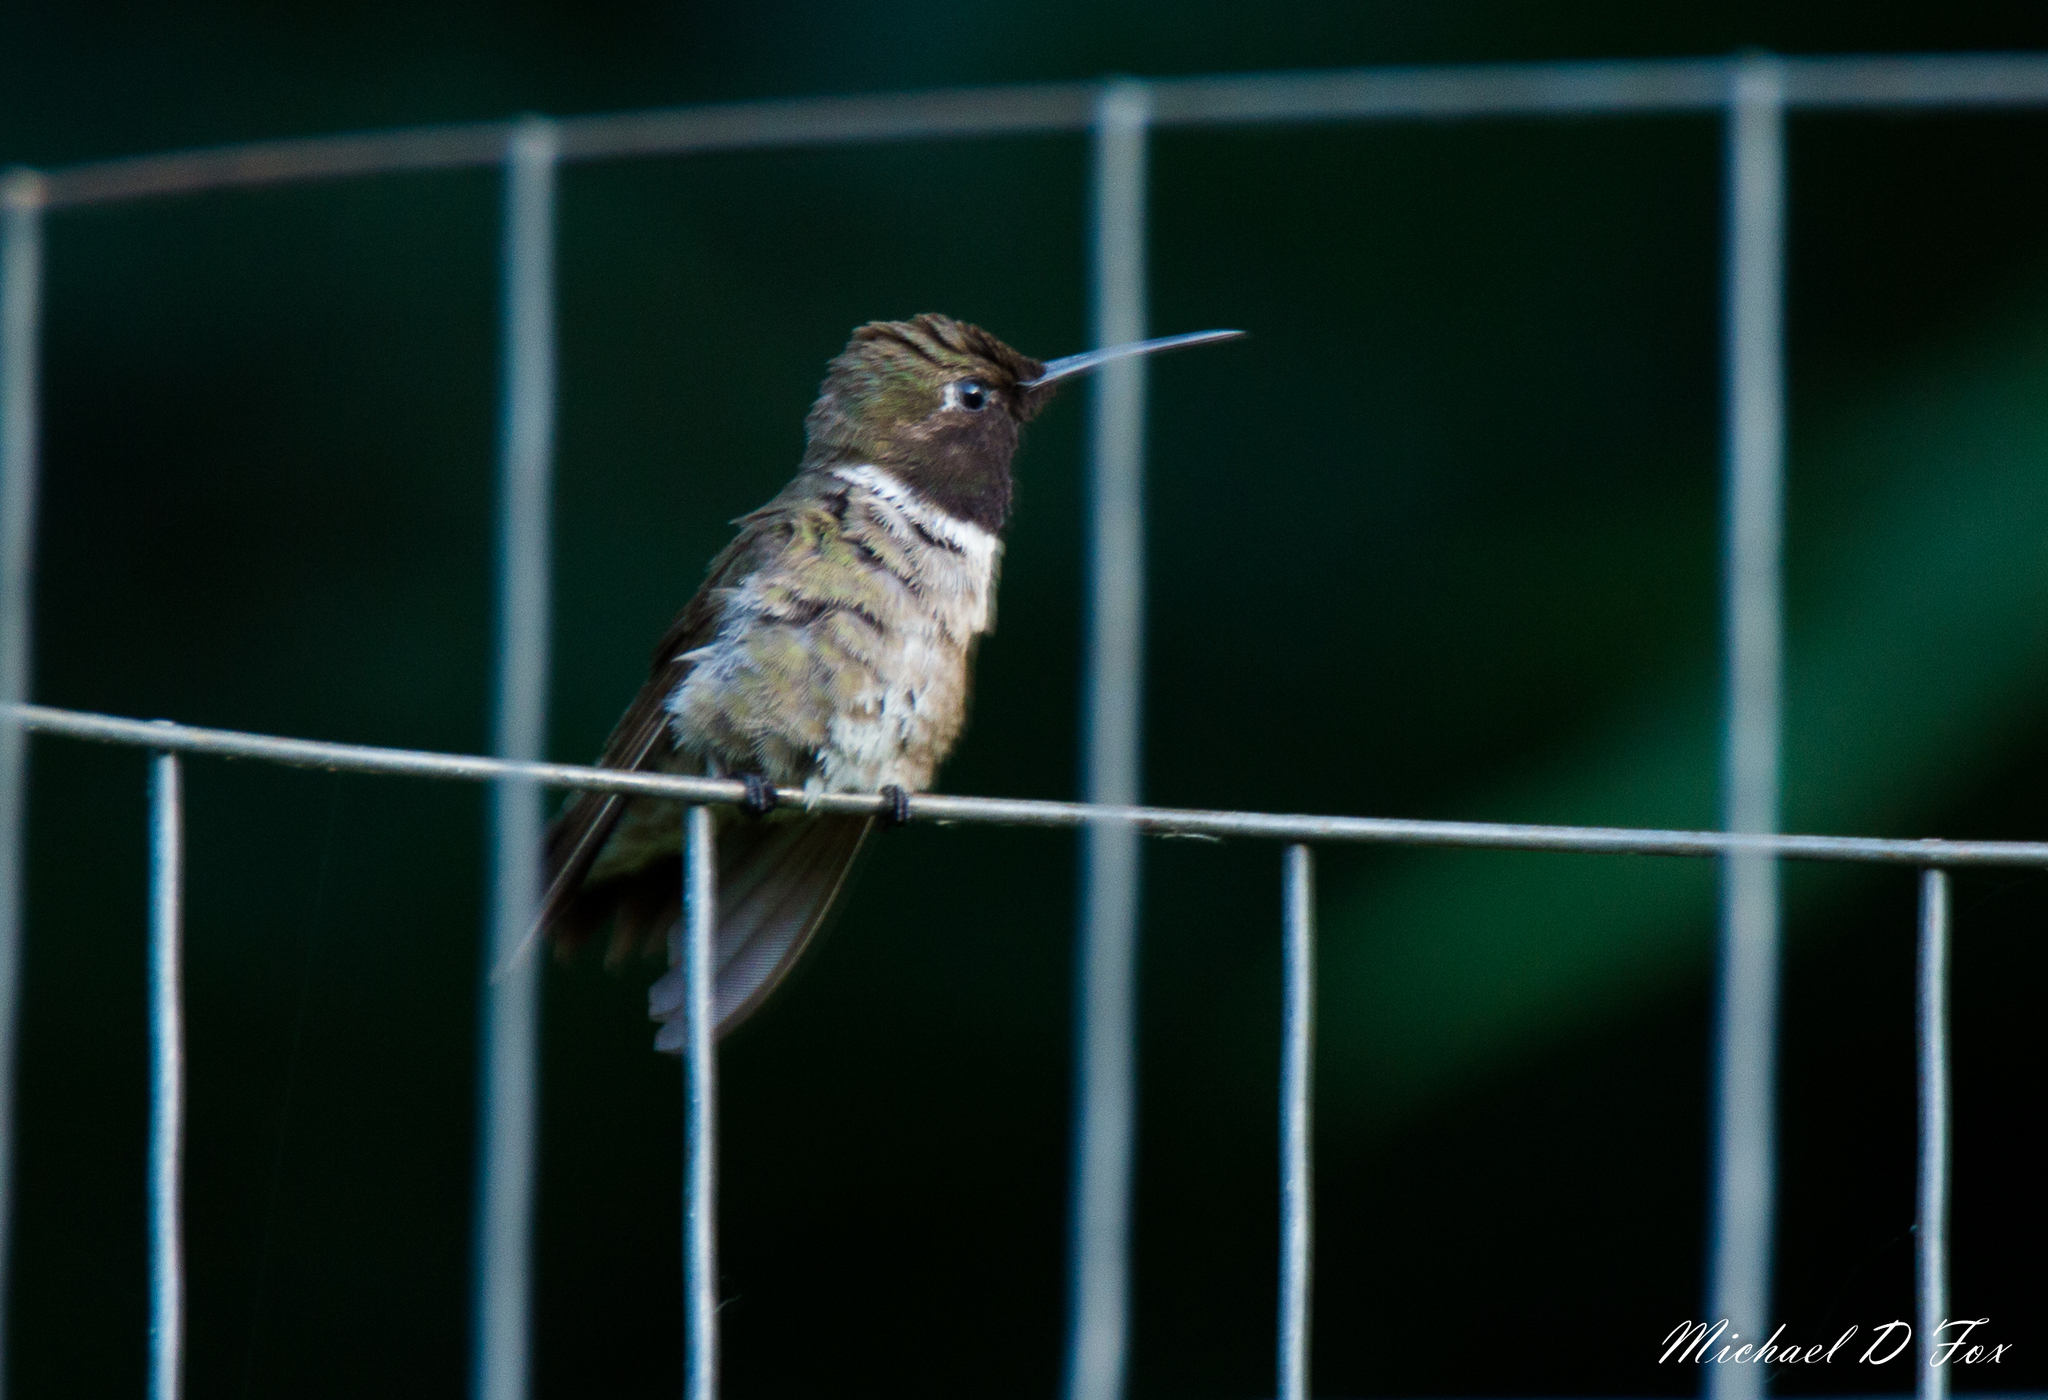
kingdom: Animalia
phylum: Chordata
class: Aves
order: Apodiformes
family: Trochilidae
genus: Archilochus
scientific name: Archilochus alexandri
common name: Black-chinned hummingbird
